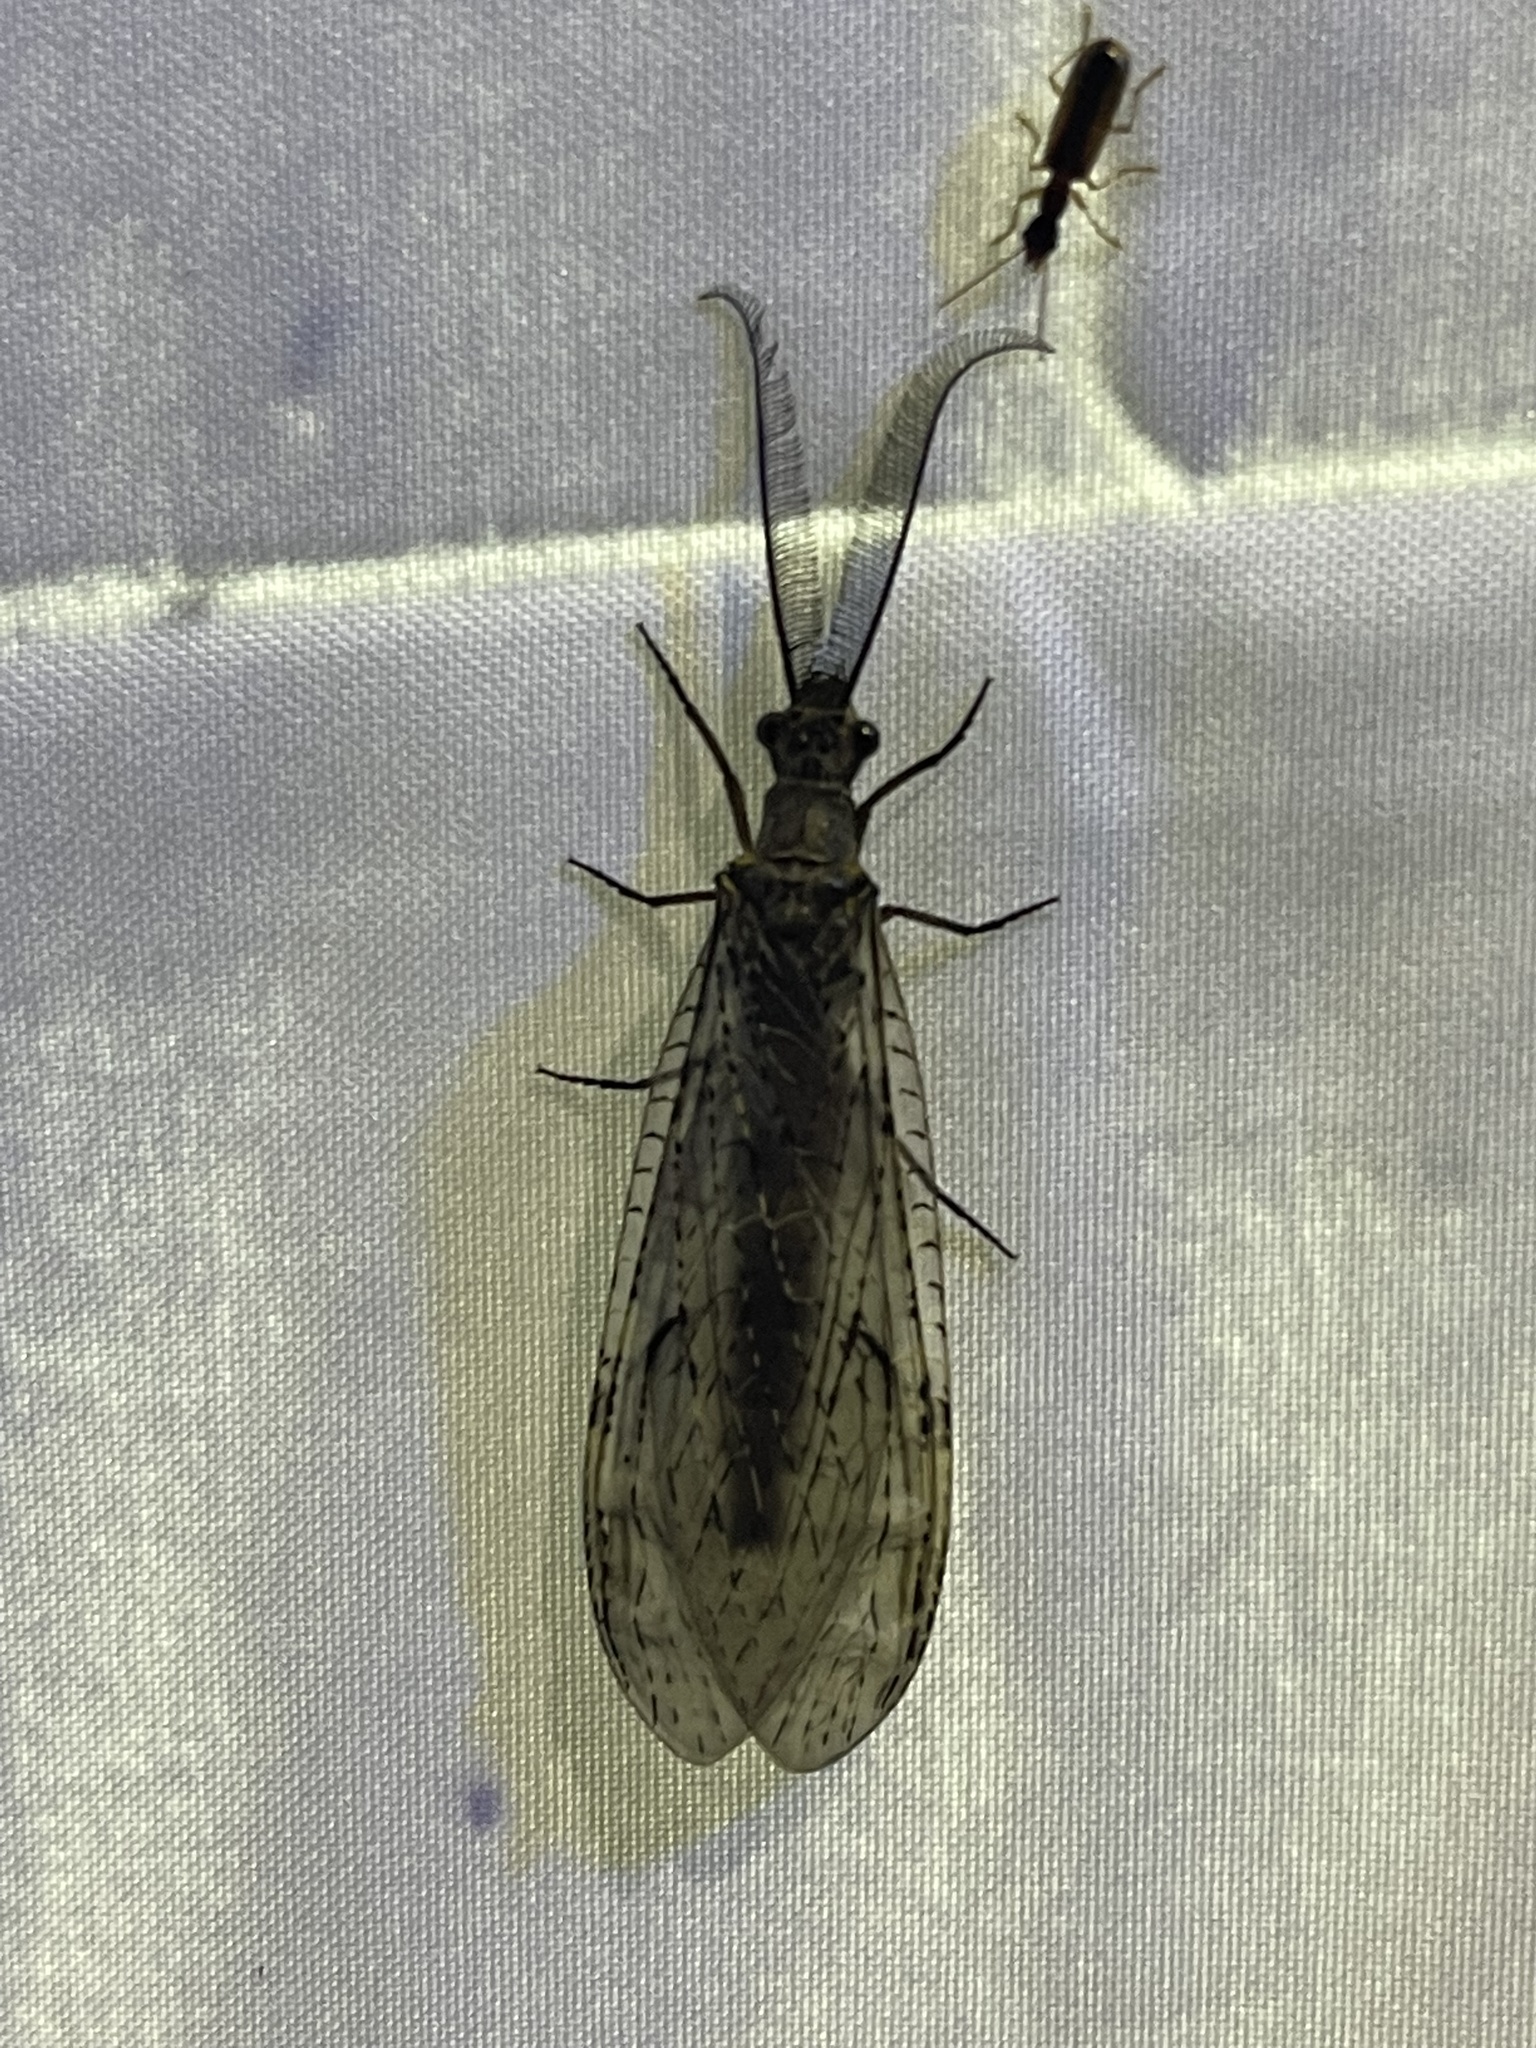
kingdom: Animalia
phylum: Arthropoda
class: Insecta
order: Megaloptera
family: Corydalidae
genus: Chauliodes
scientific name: Chauliodes rastricornis
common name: Spring fishfly
